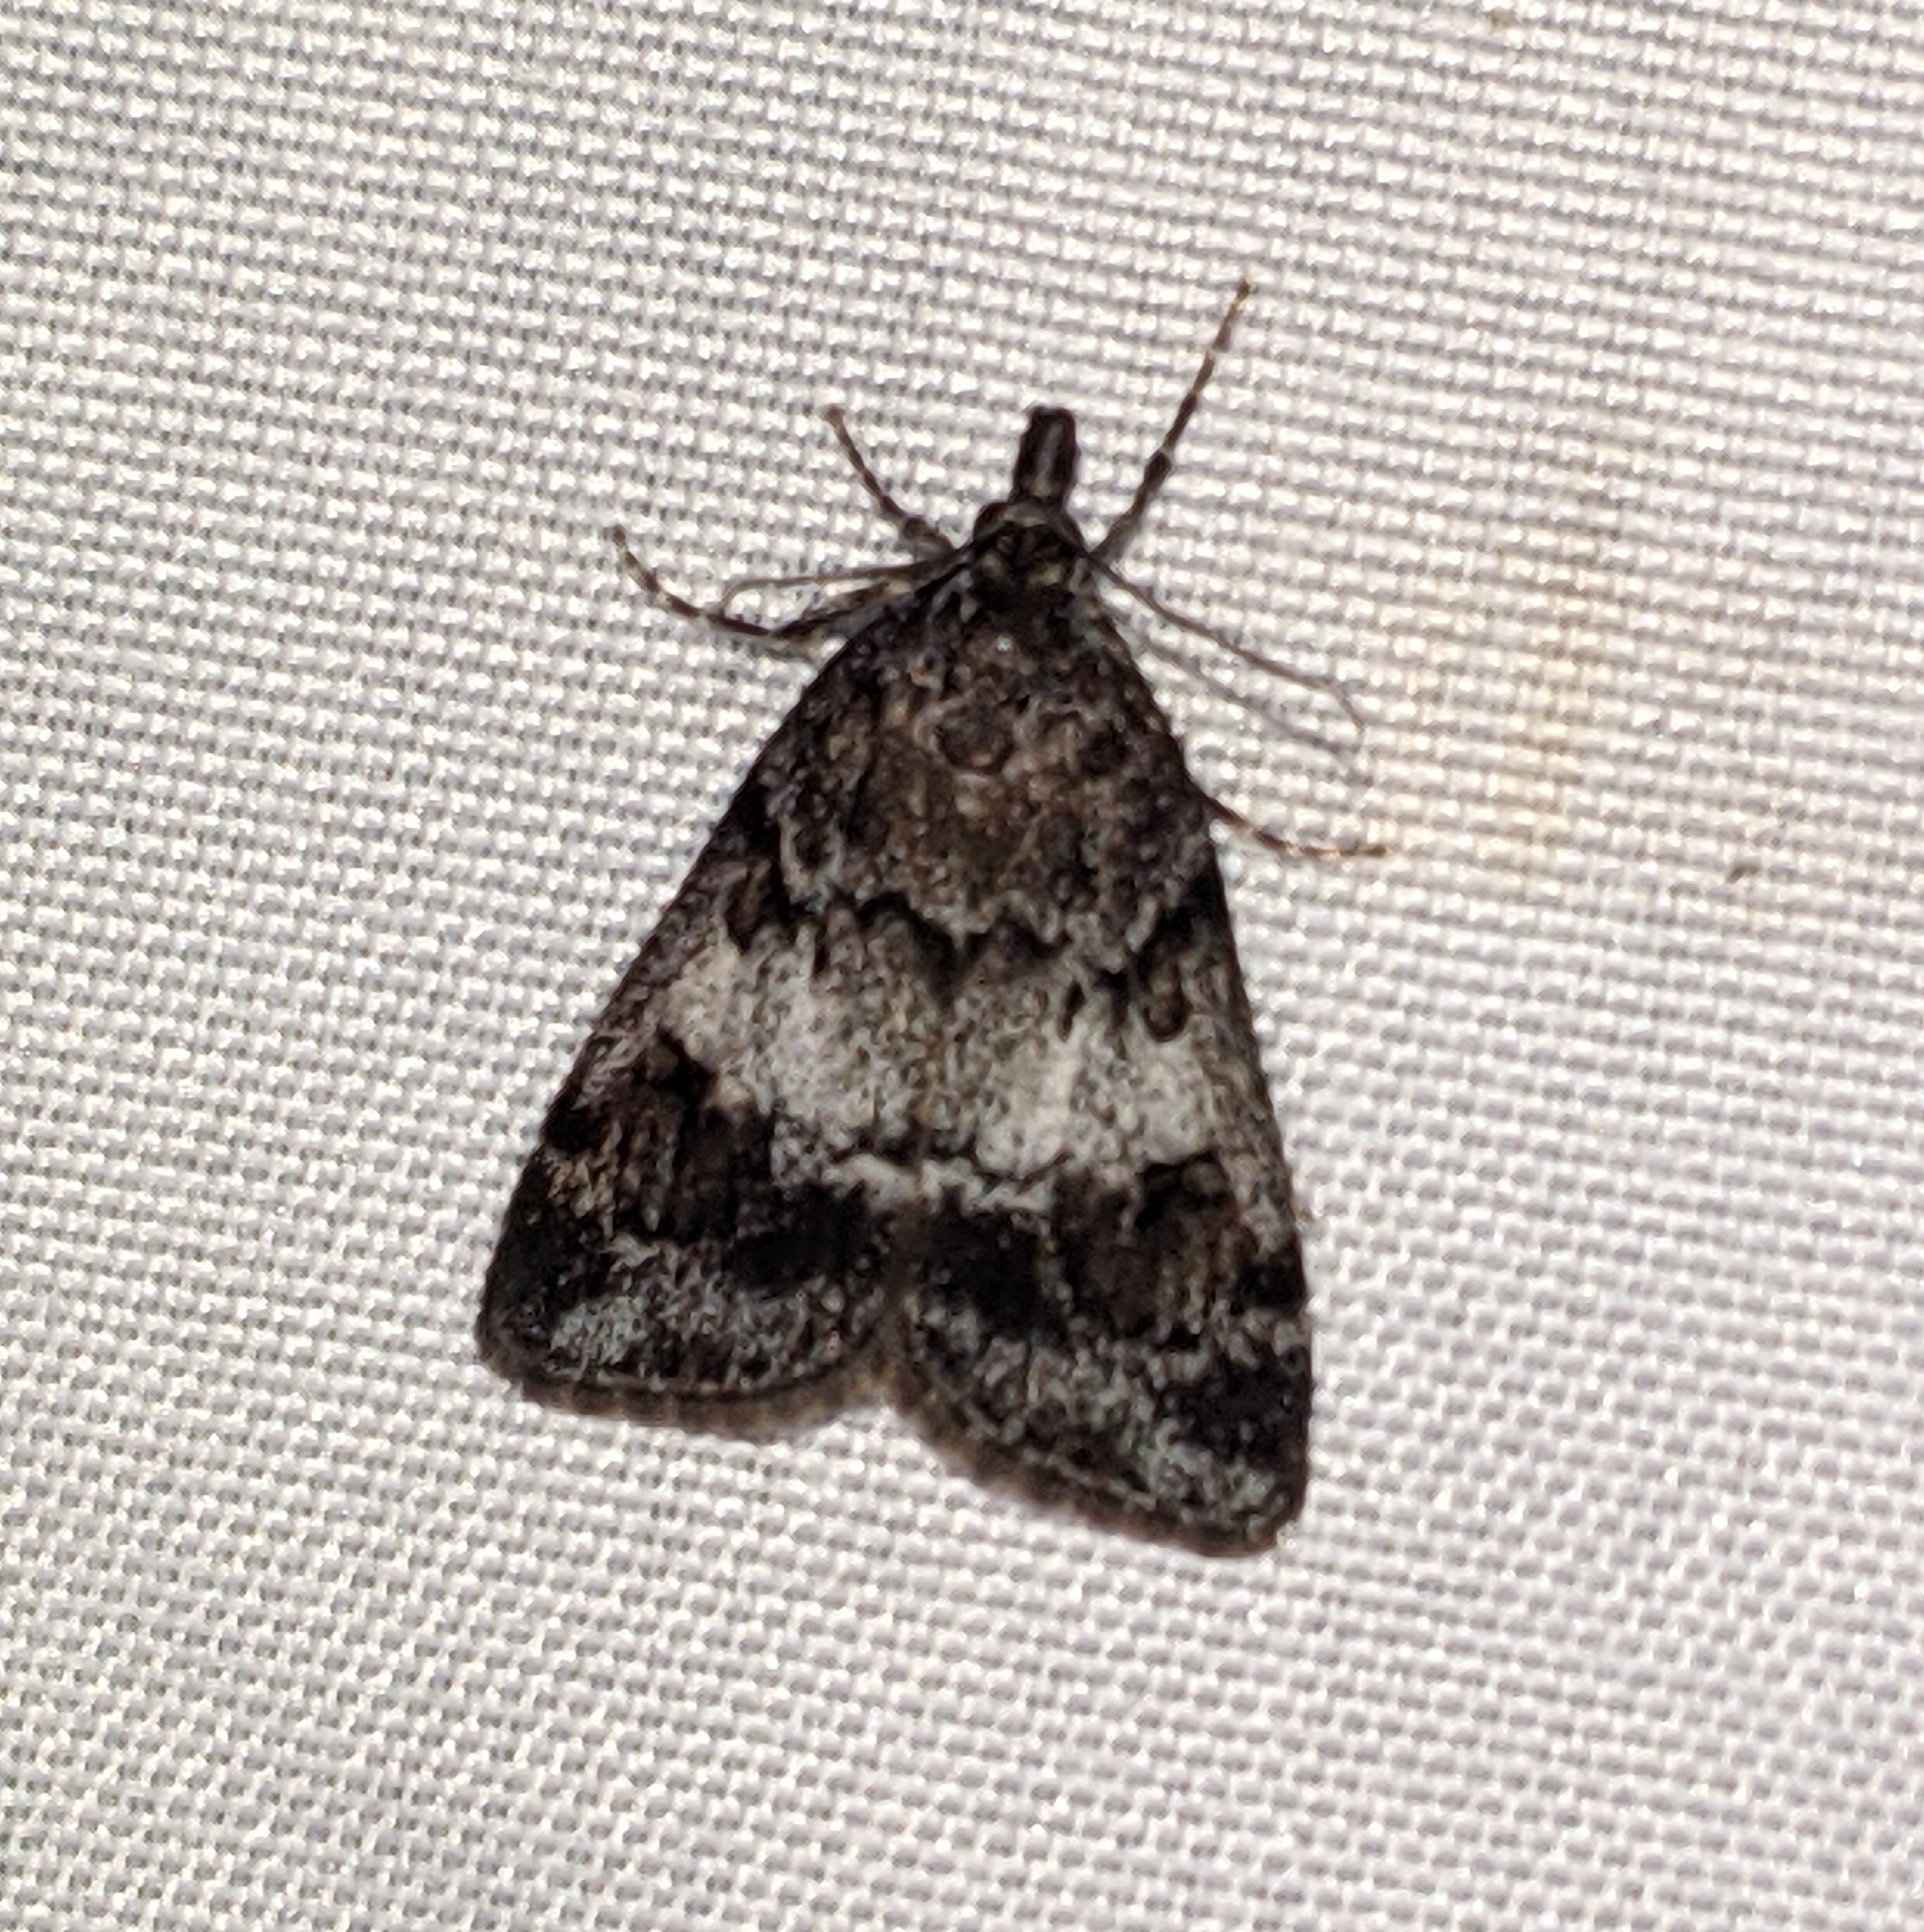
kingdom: Animalia
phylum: Arthropoda
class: Insecta
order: Lepidoptera
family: Crambidae
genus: Gesneria
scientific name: Gesneria centuriella
